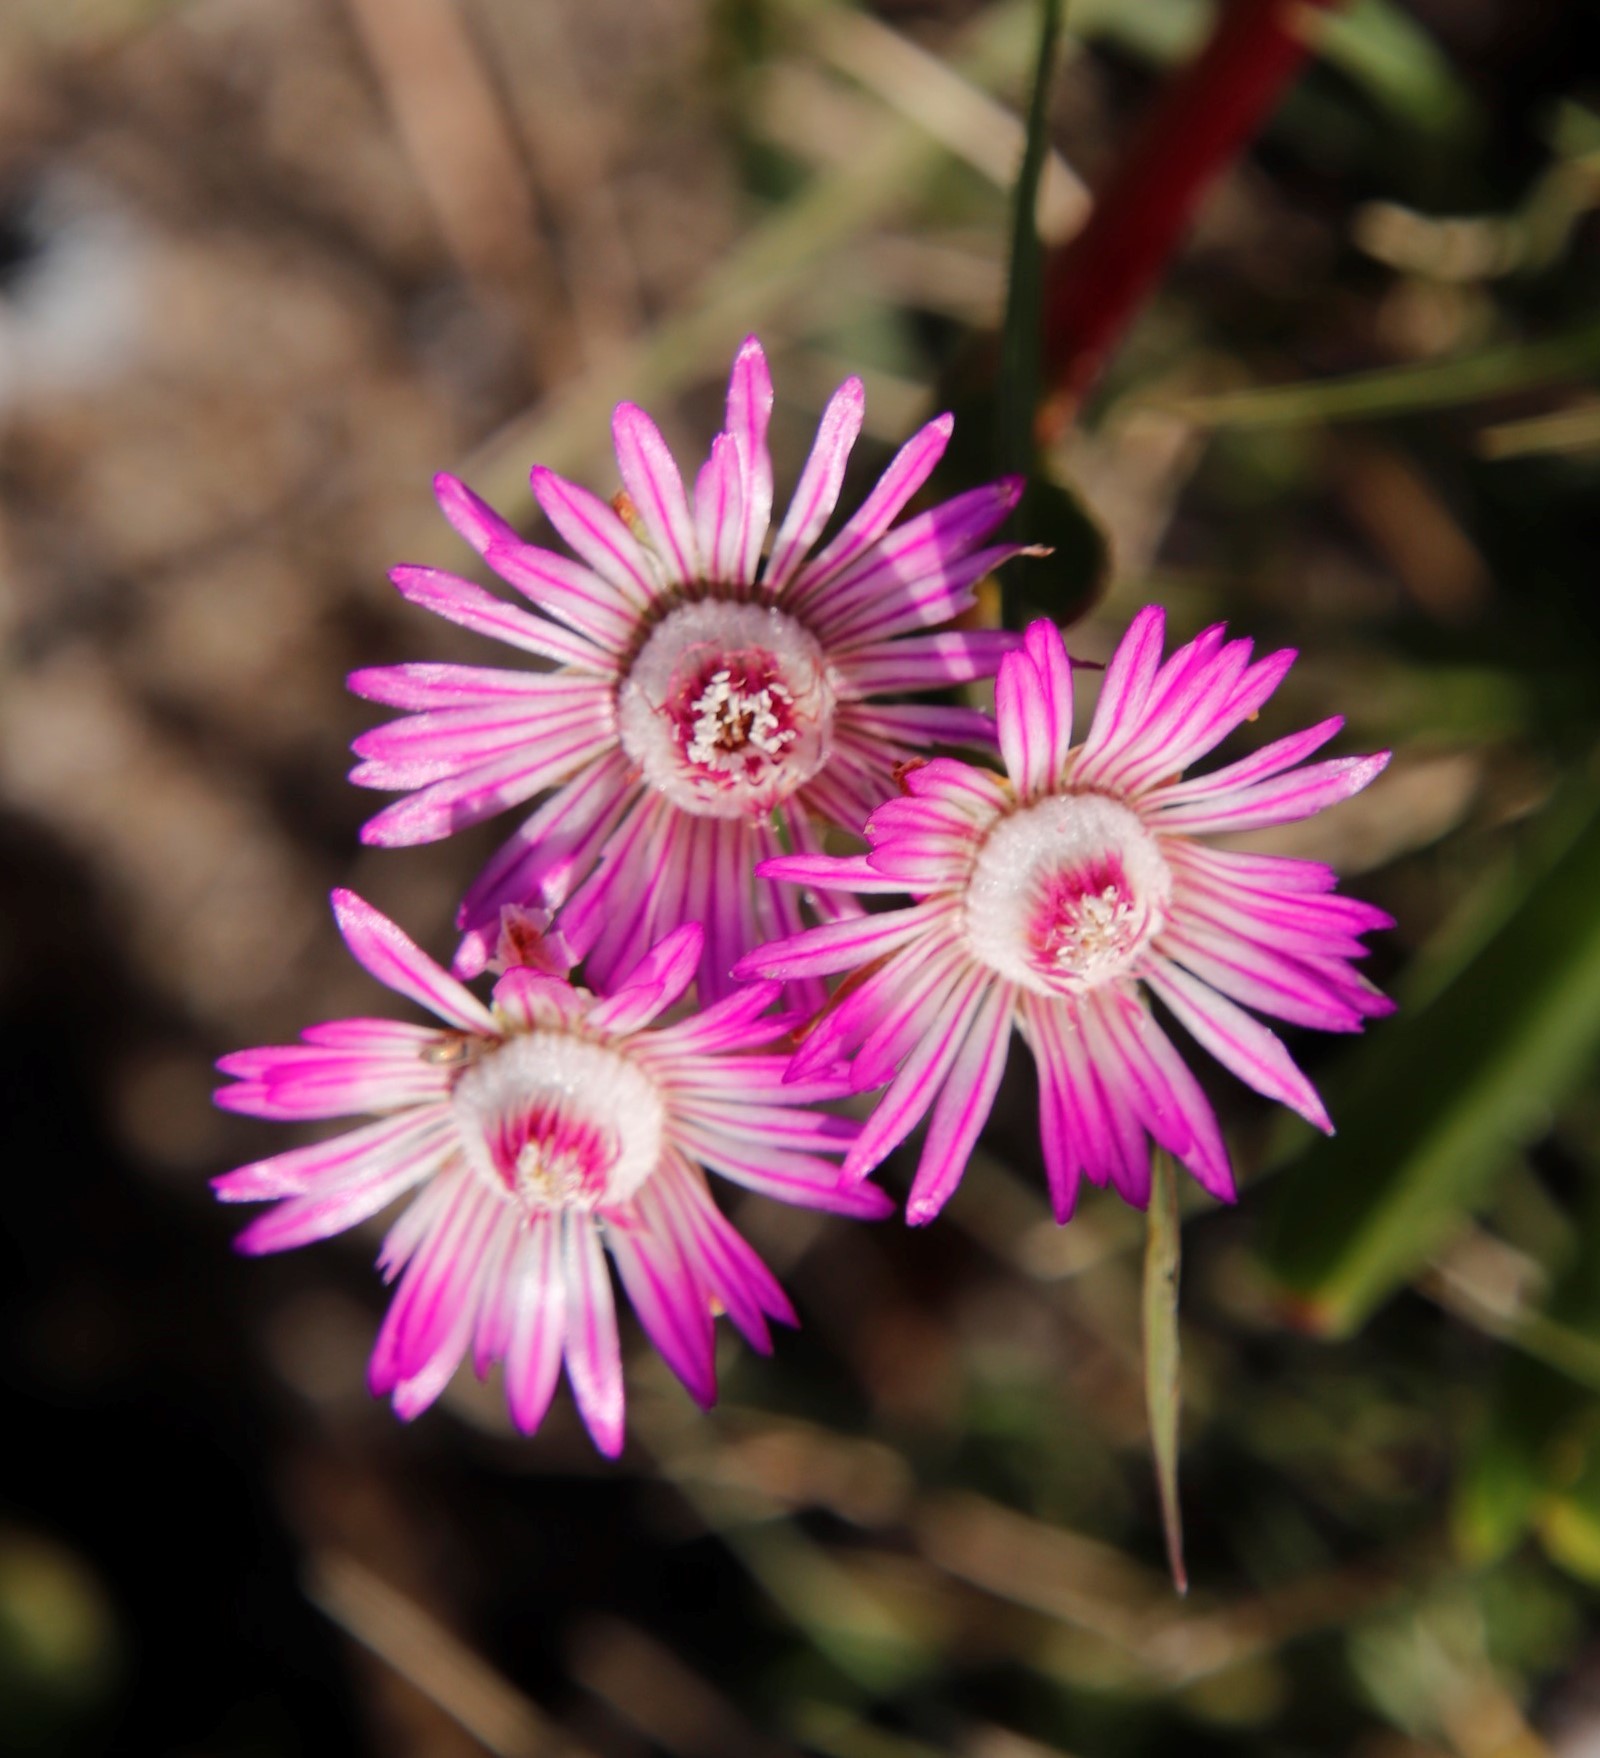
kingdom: Plantae
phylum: Tracheophyta
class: Magnoliopsida
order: Caryophyllales
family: Aizoaceae
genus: Ruschia
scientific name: Ruschia sarmentosa
